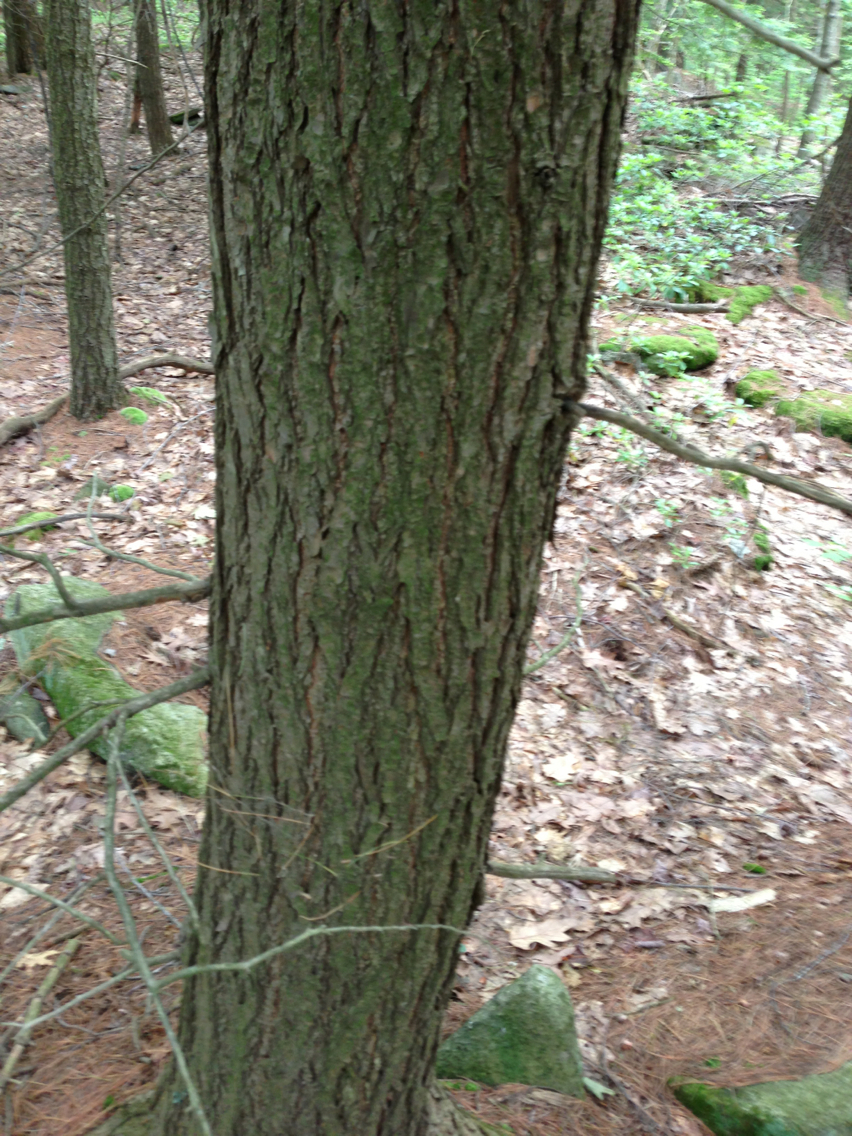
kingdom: Plantae
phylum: Tracheophyta
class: Pinopsida
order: Pinales
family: Pinaceae
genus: Tsuga
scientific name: Tsuga canadensis
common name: Eastern hemlock
